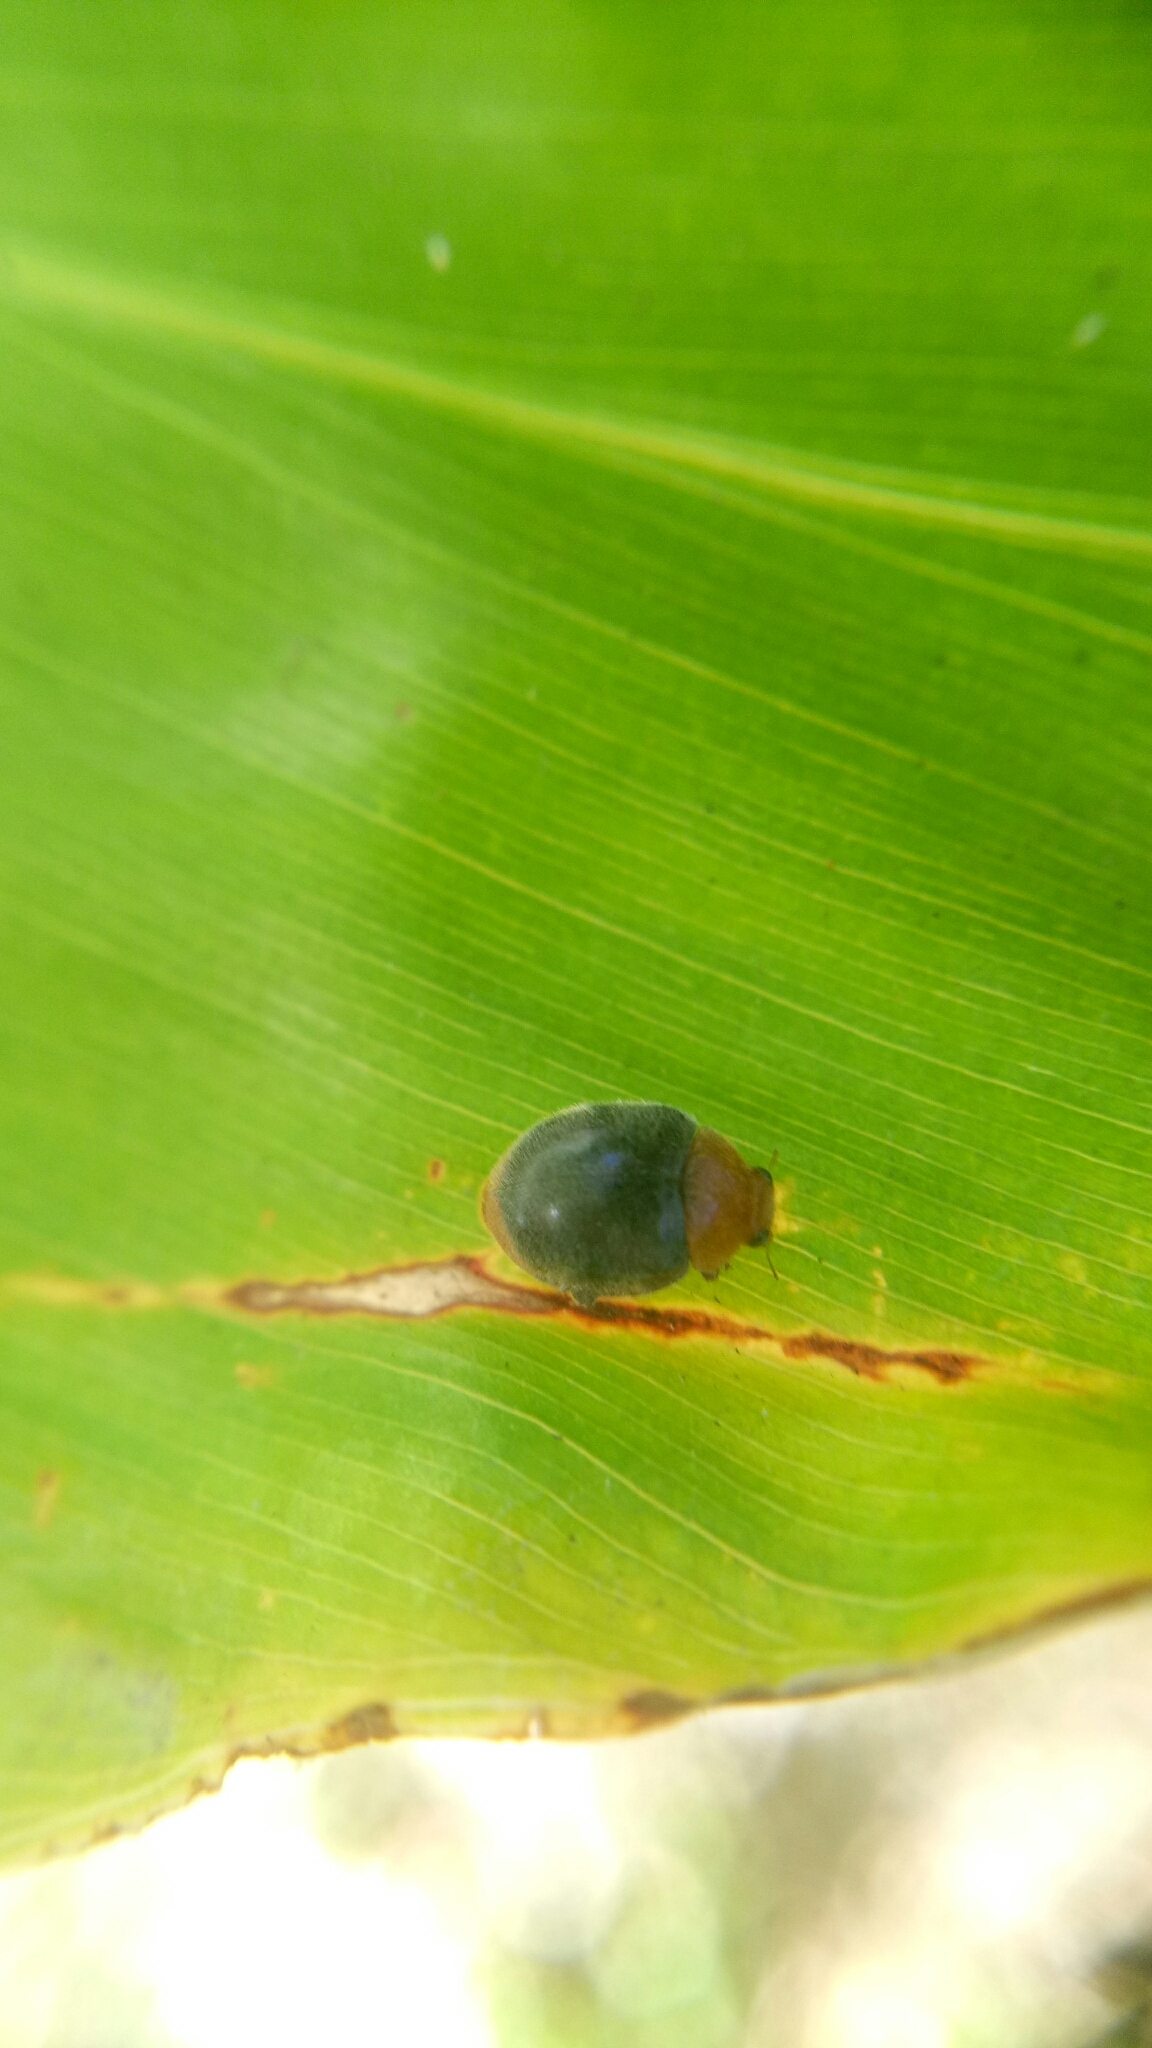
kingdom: Animalia
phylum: Arthropoda
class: Insecta
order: Coleoptera
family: Coccinellidae
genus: Cryptolaemus
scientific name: Cryptolaemus montrouzieri
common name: Mealybug destroyer
